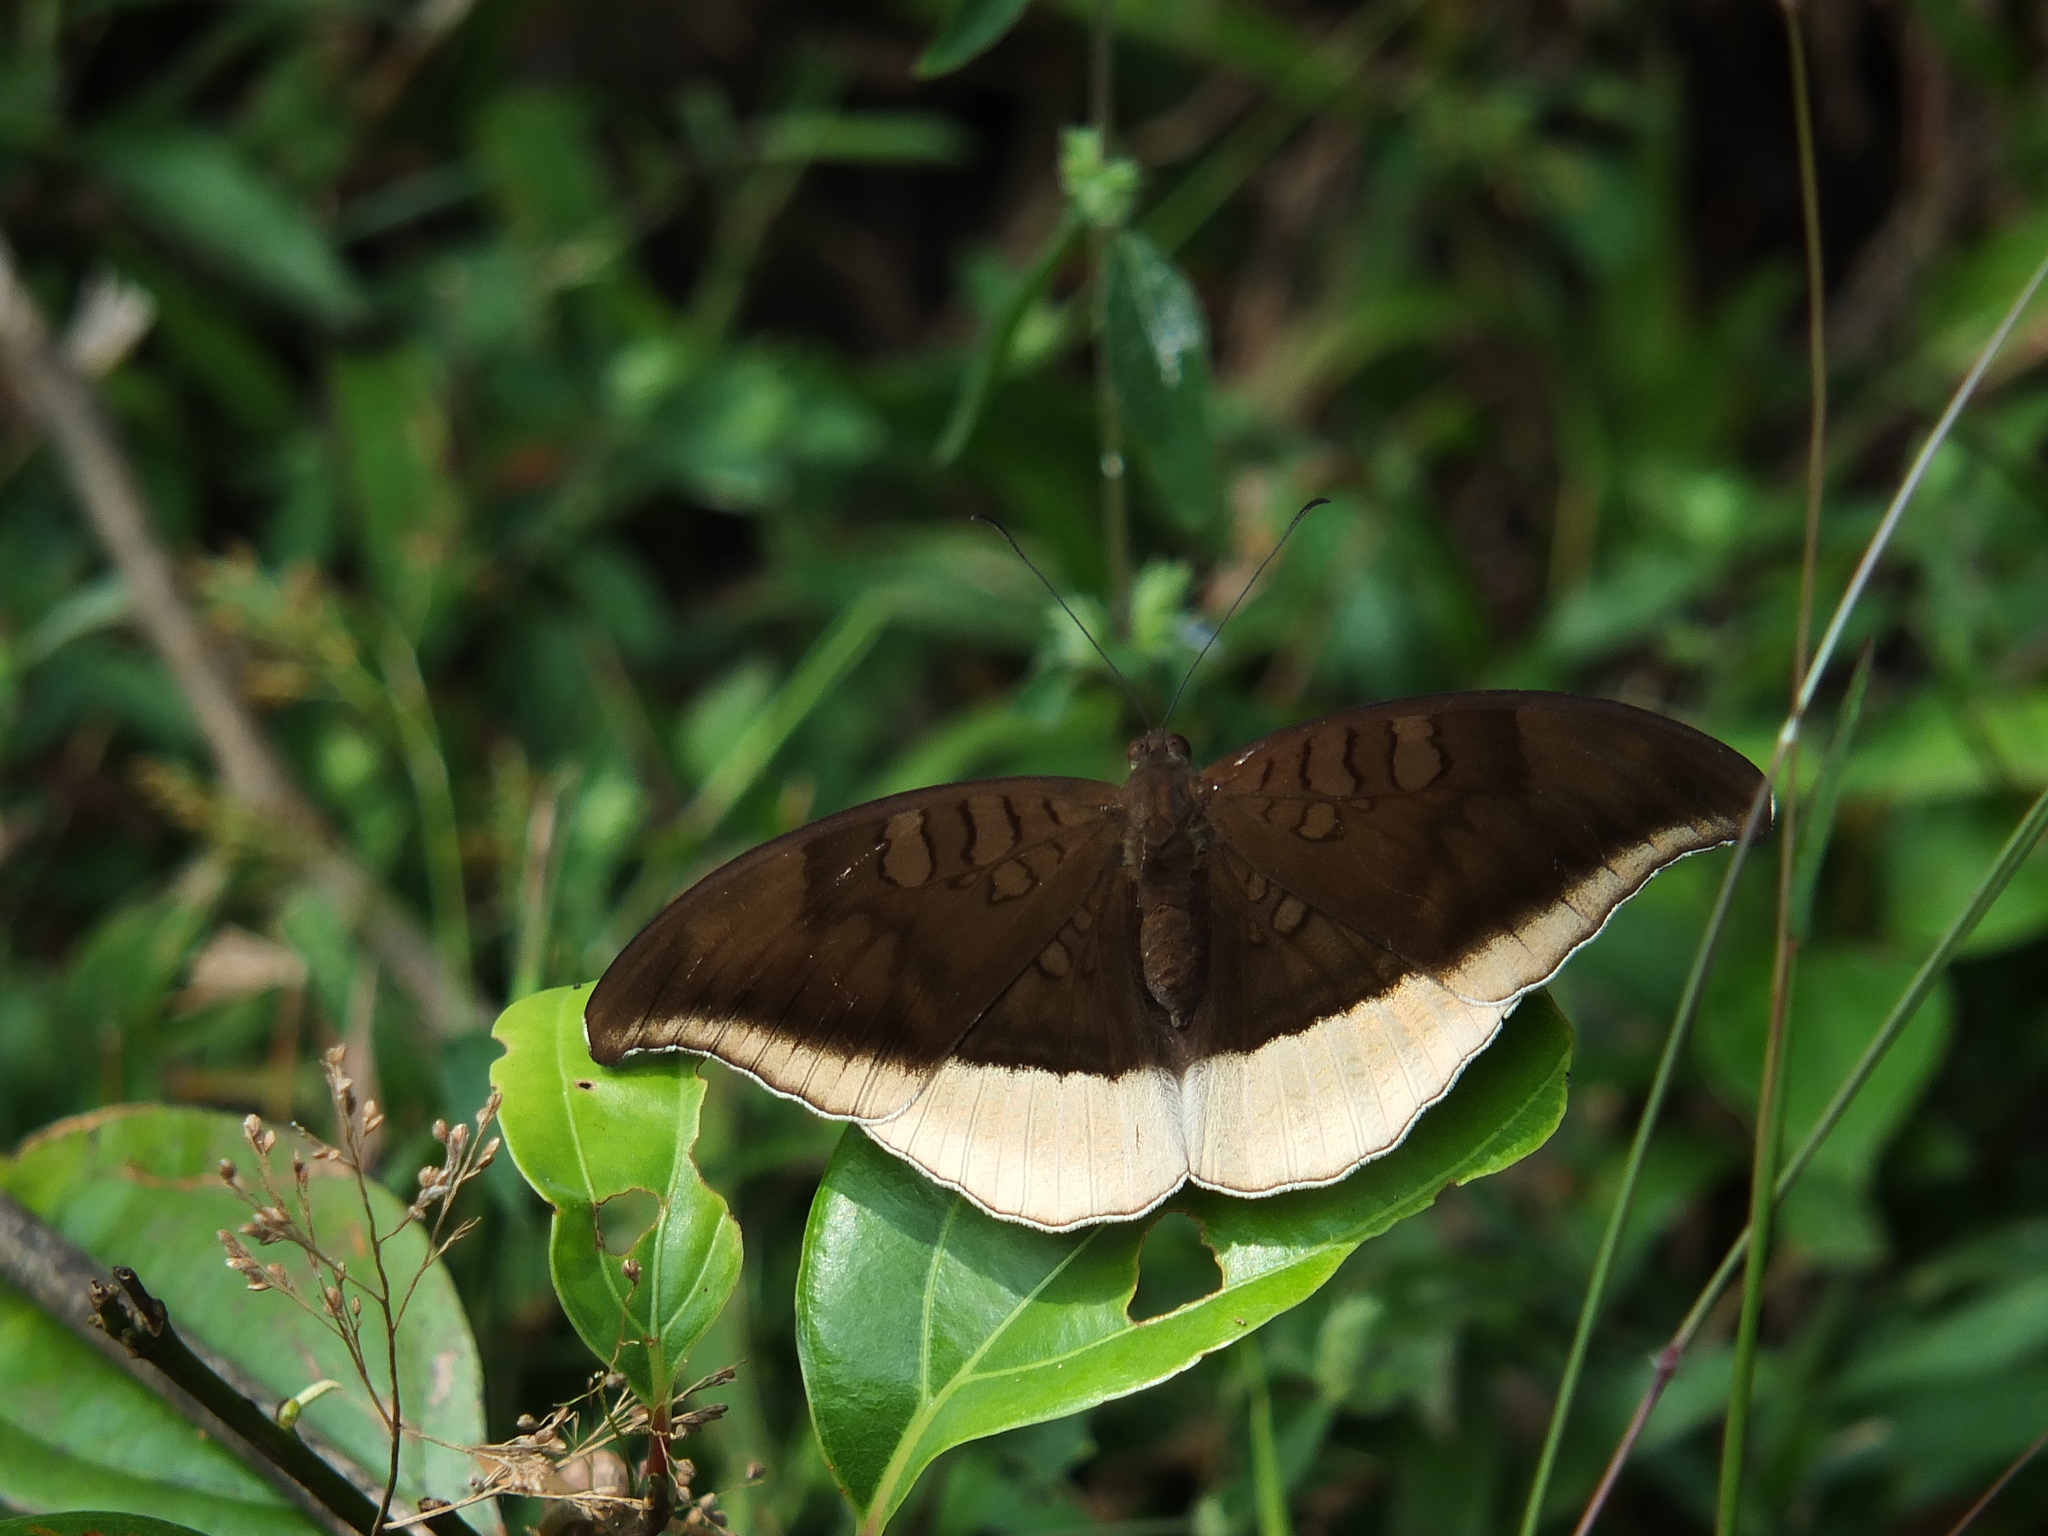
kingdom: Animalia
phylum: Arthropoda
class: Insecta
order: Lepidoptera
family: Nymphalidae
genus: Tanaecia
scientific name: Tanaecia lepidea
